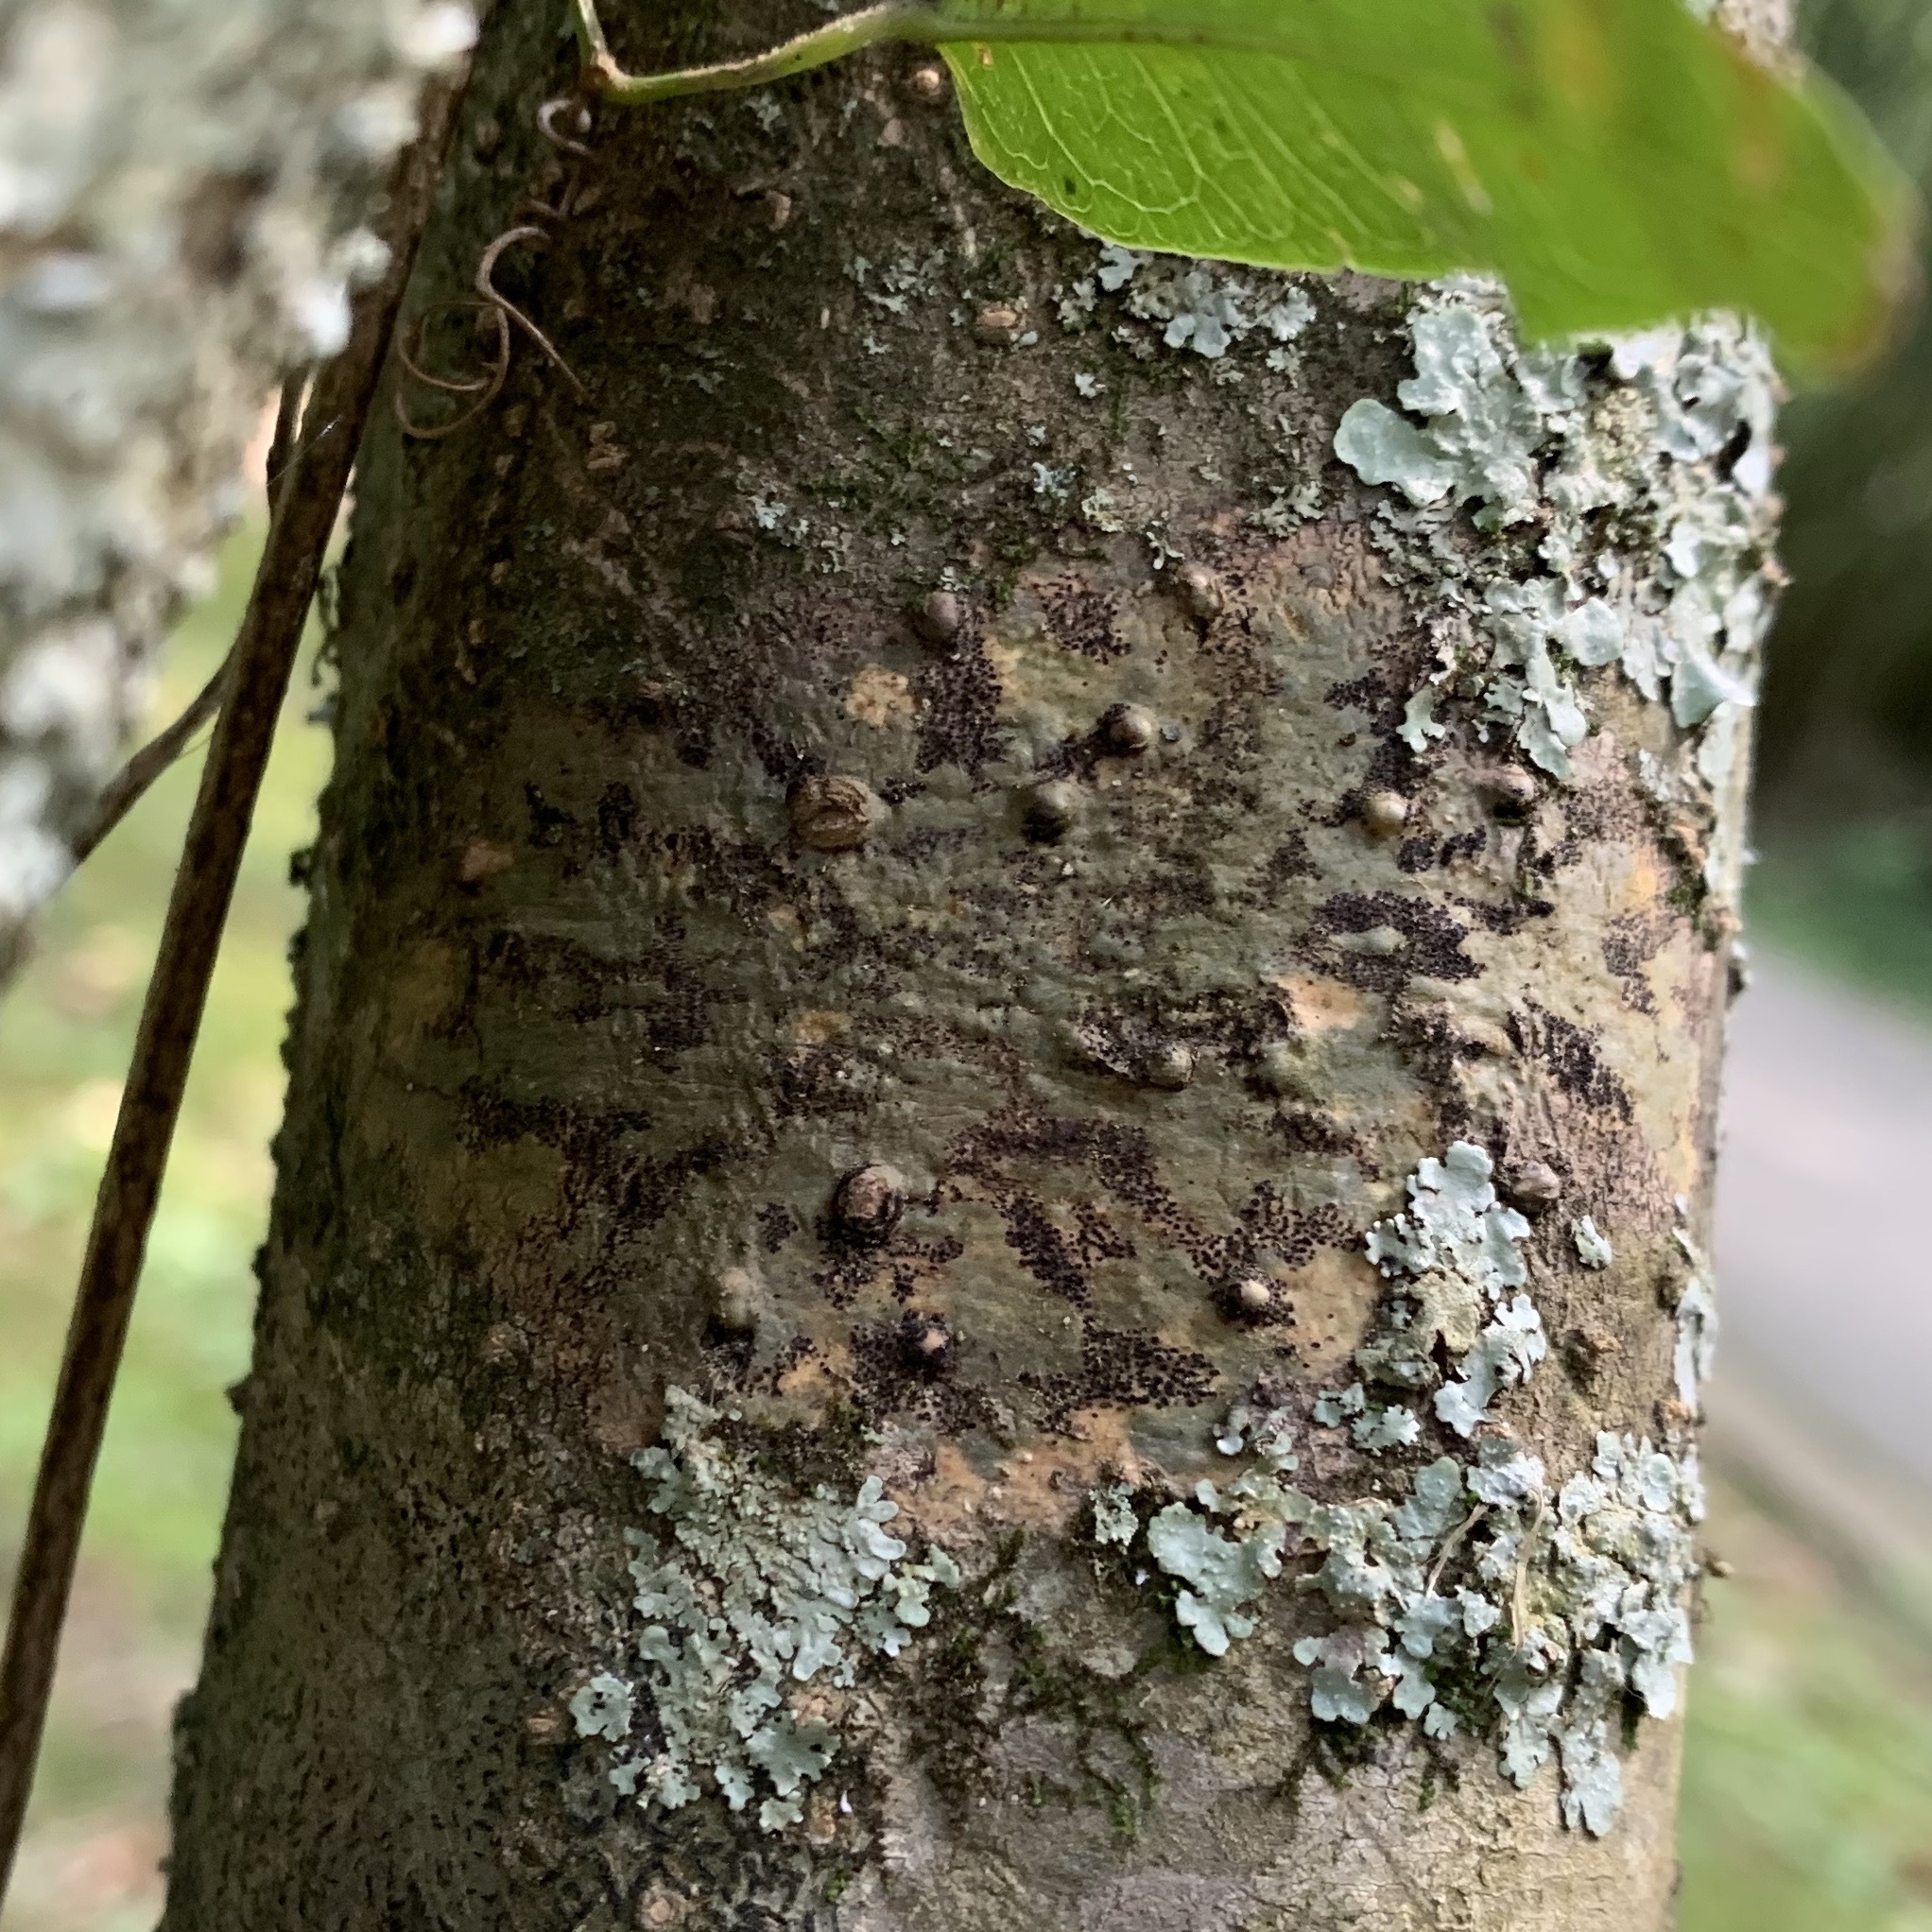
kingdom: Fungi
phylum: Ascomycota
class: Dothideomycetes
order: Trypetheliales
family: Trypetheliaceae
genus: Viridothelium
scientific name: Viridothelium virens
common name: Speckled blister lichen
